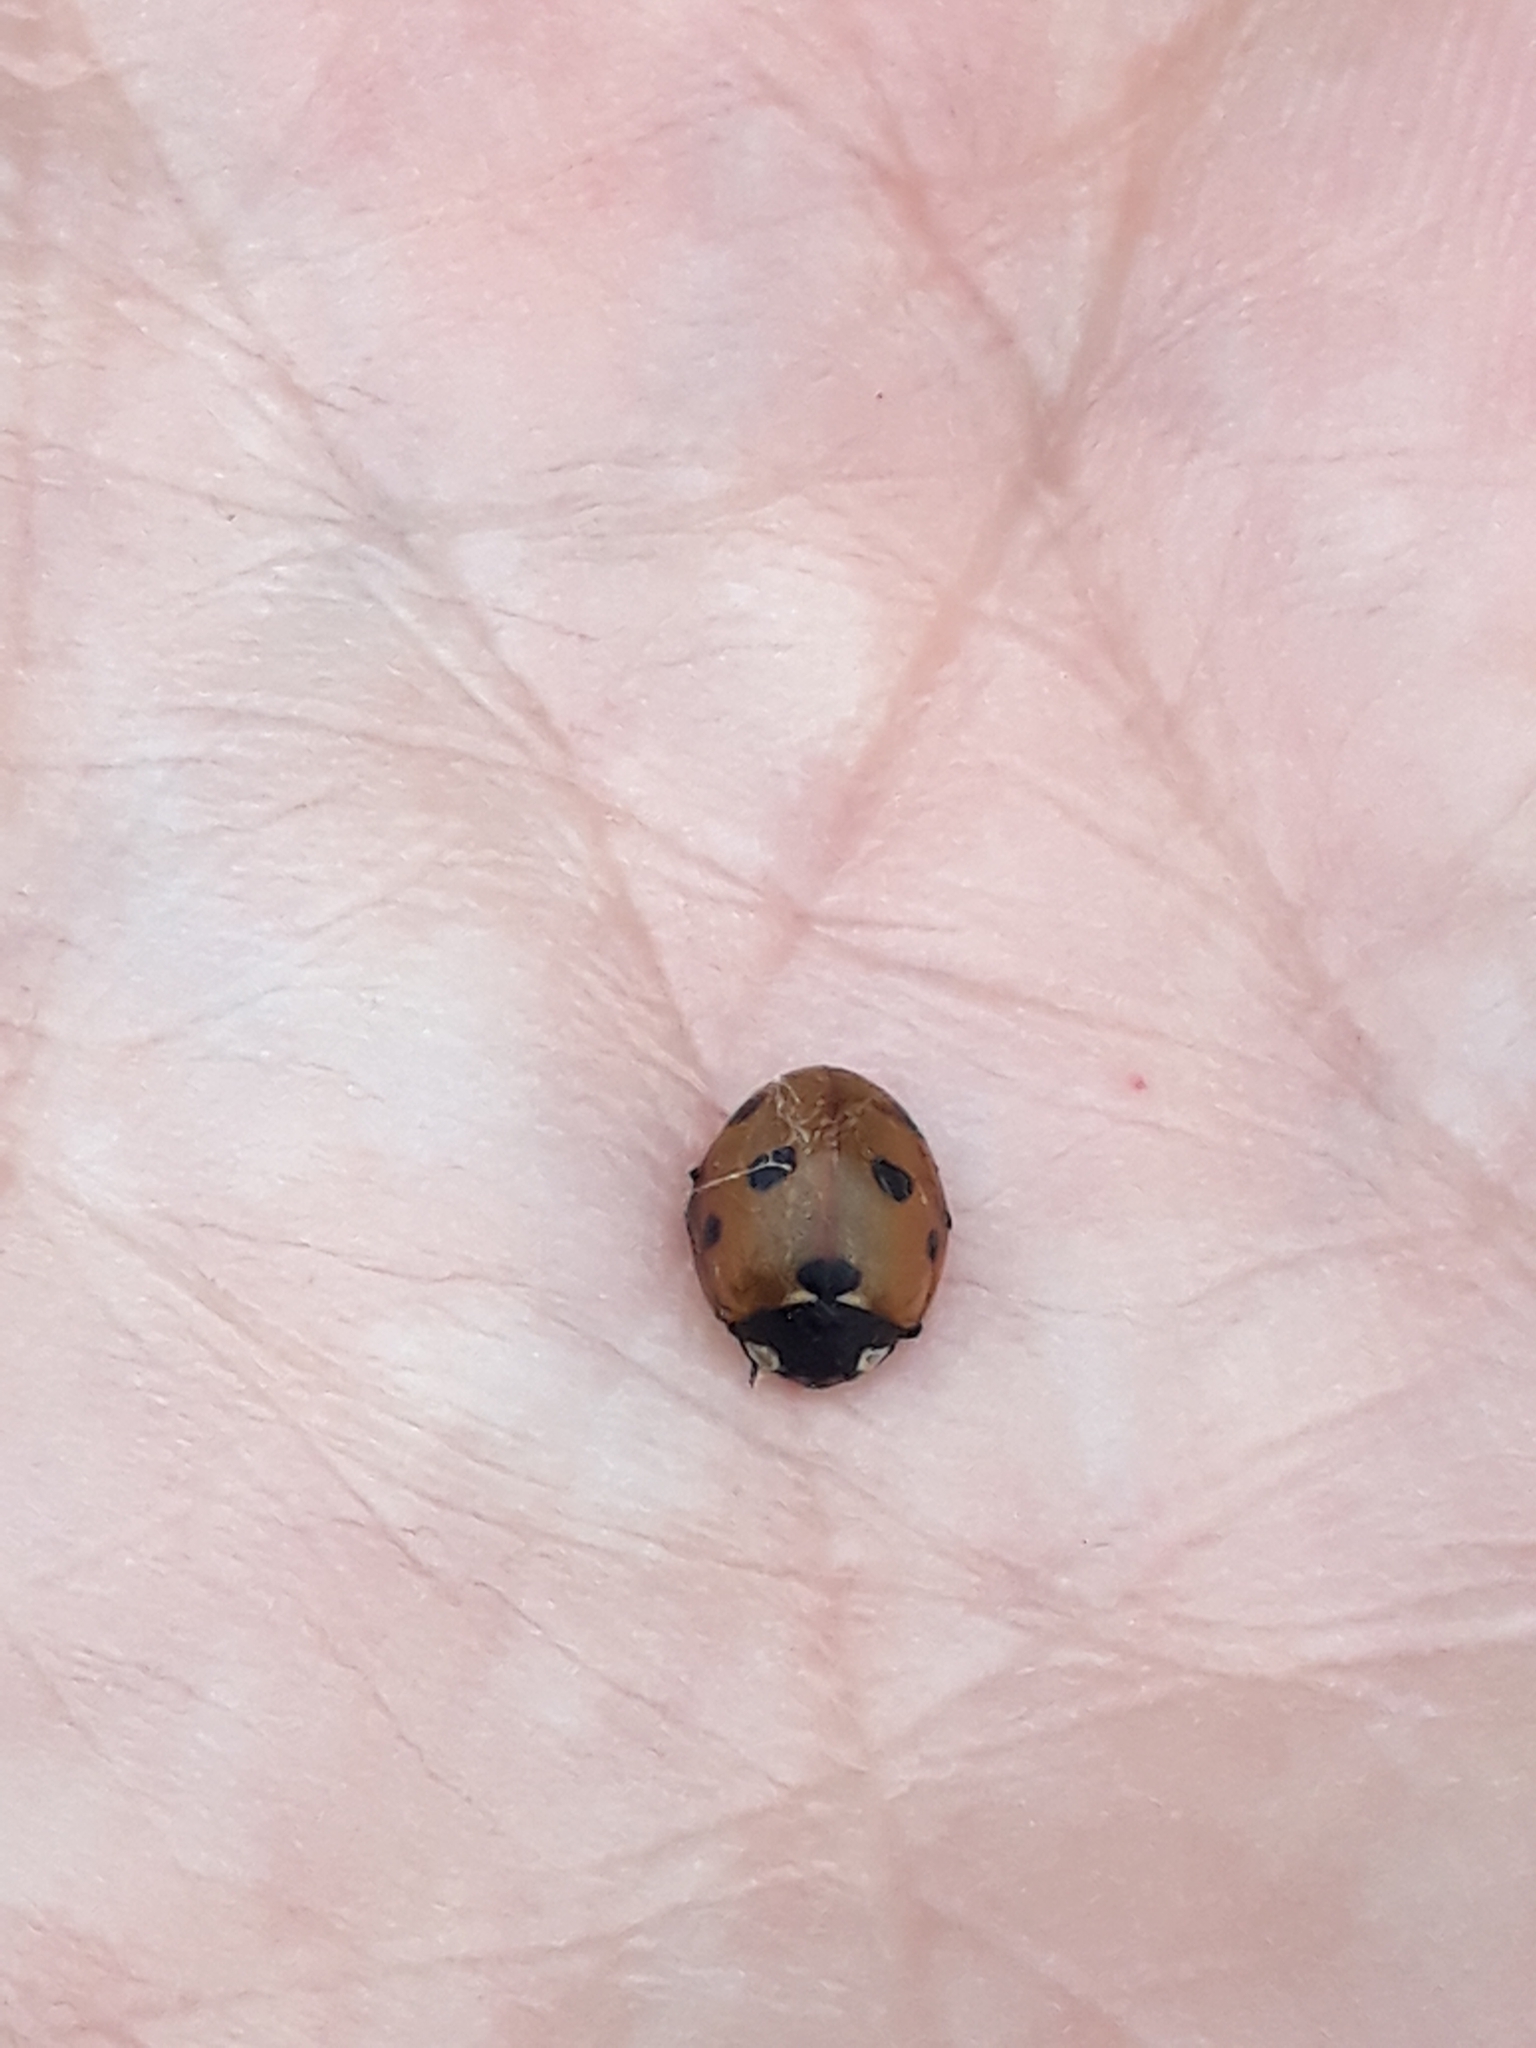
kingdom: Animalia
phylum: Arthropoda
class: Insecta
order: Coleoptera
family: Coccinellidae
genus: Coccinella
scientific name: Coccinella septempunctata
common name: Sevenspotted lady beetle
